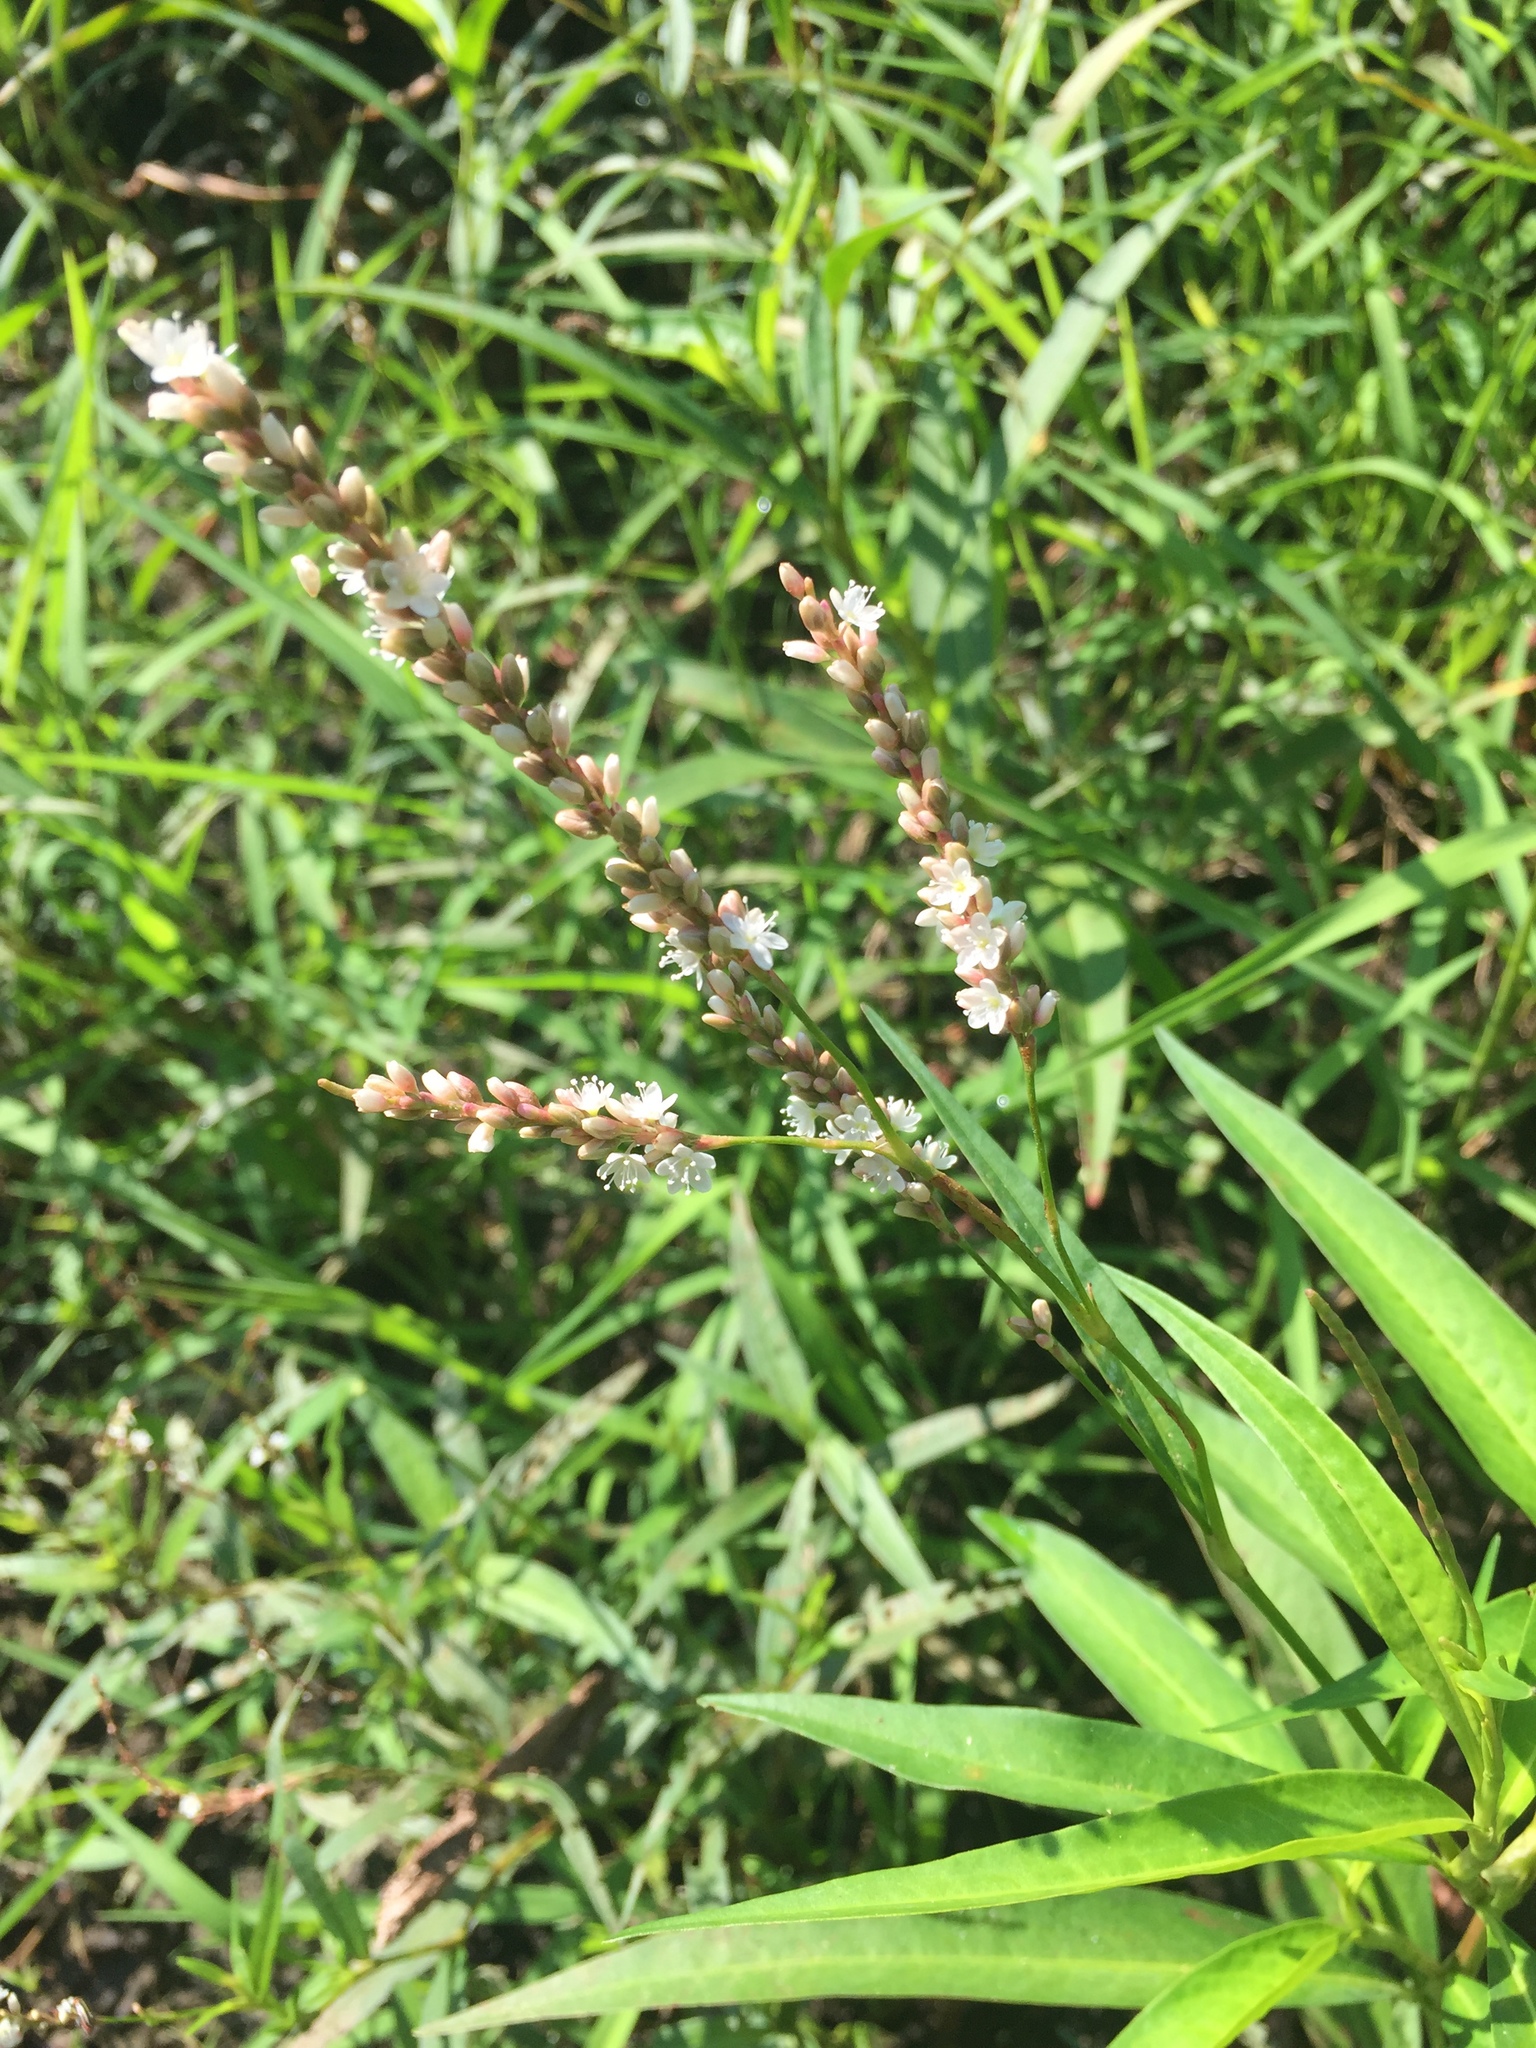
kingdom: Plantae
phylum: Tracheophyta
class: Magnoliopsida
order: Caryophyllales
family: Polygonaceae
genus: Persicaria
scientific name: Persicaria hydropiperoides
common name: Swamp smartweed
